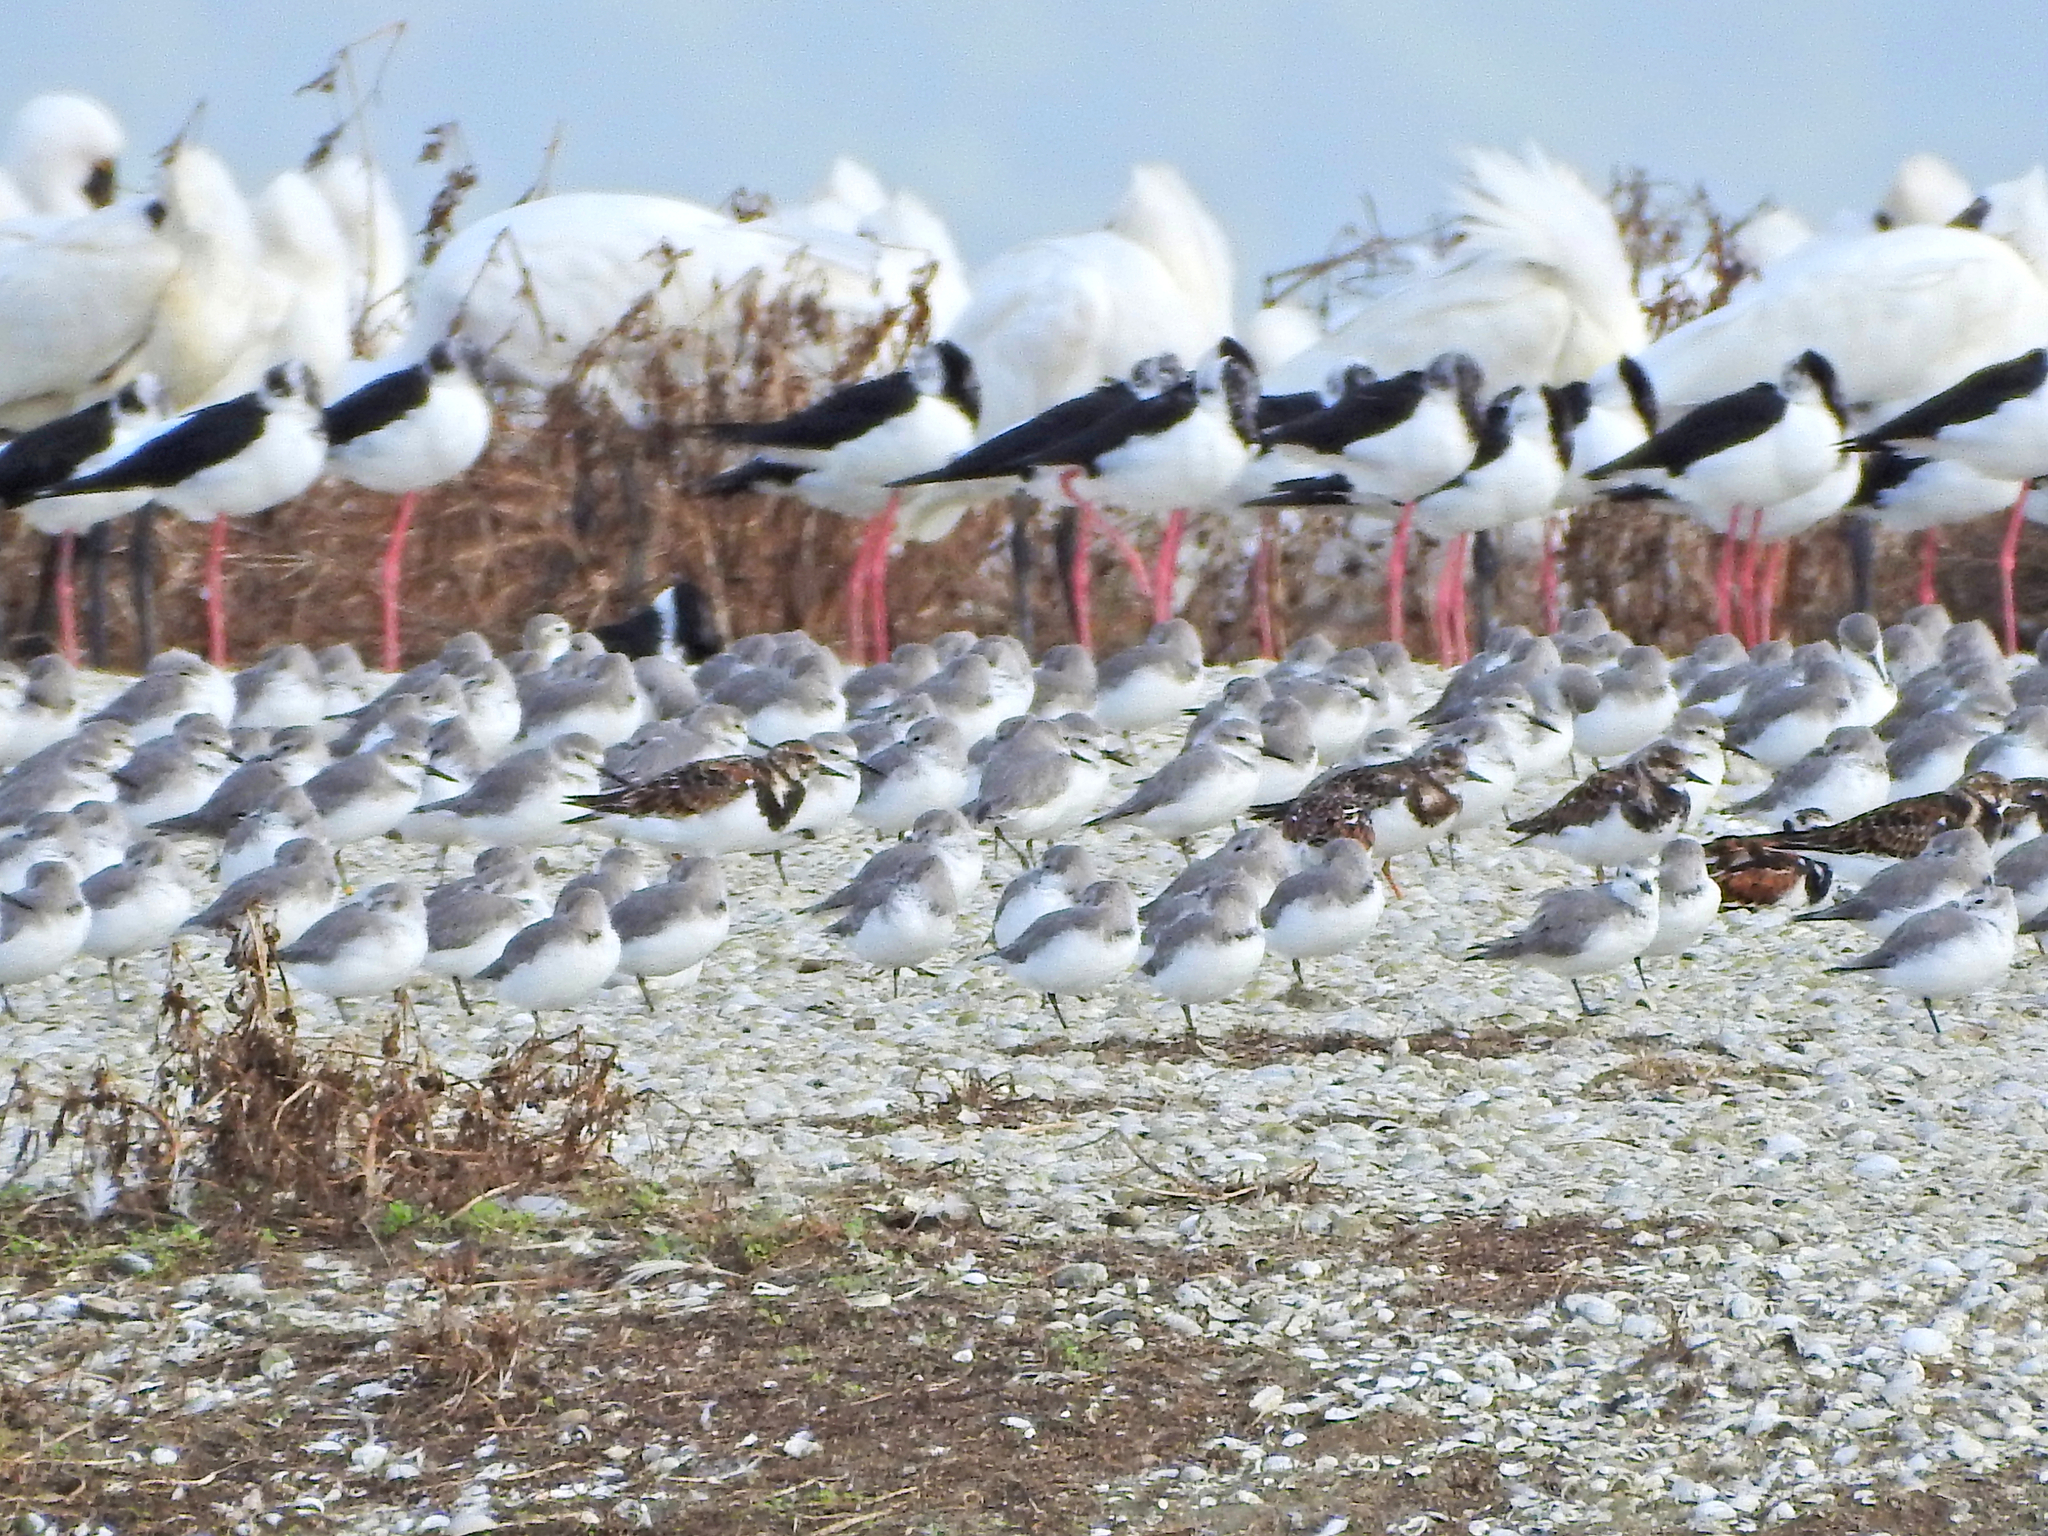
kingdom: Animalia
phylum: Chordata
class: Aves
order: Charadriiformes
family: Scolopacidae
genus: Arenaria
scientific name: Arenaria interpres
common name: Ruddy turnstone
